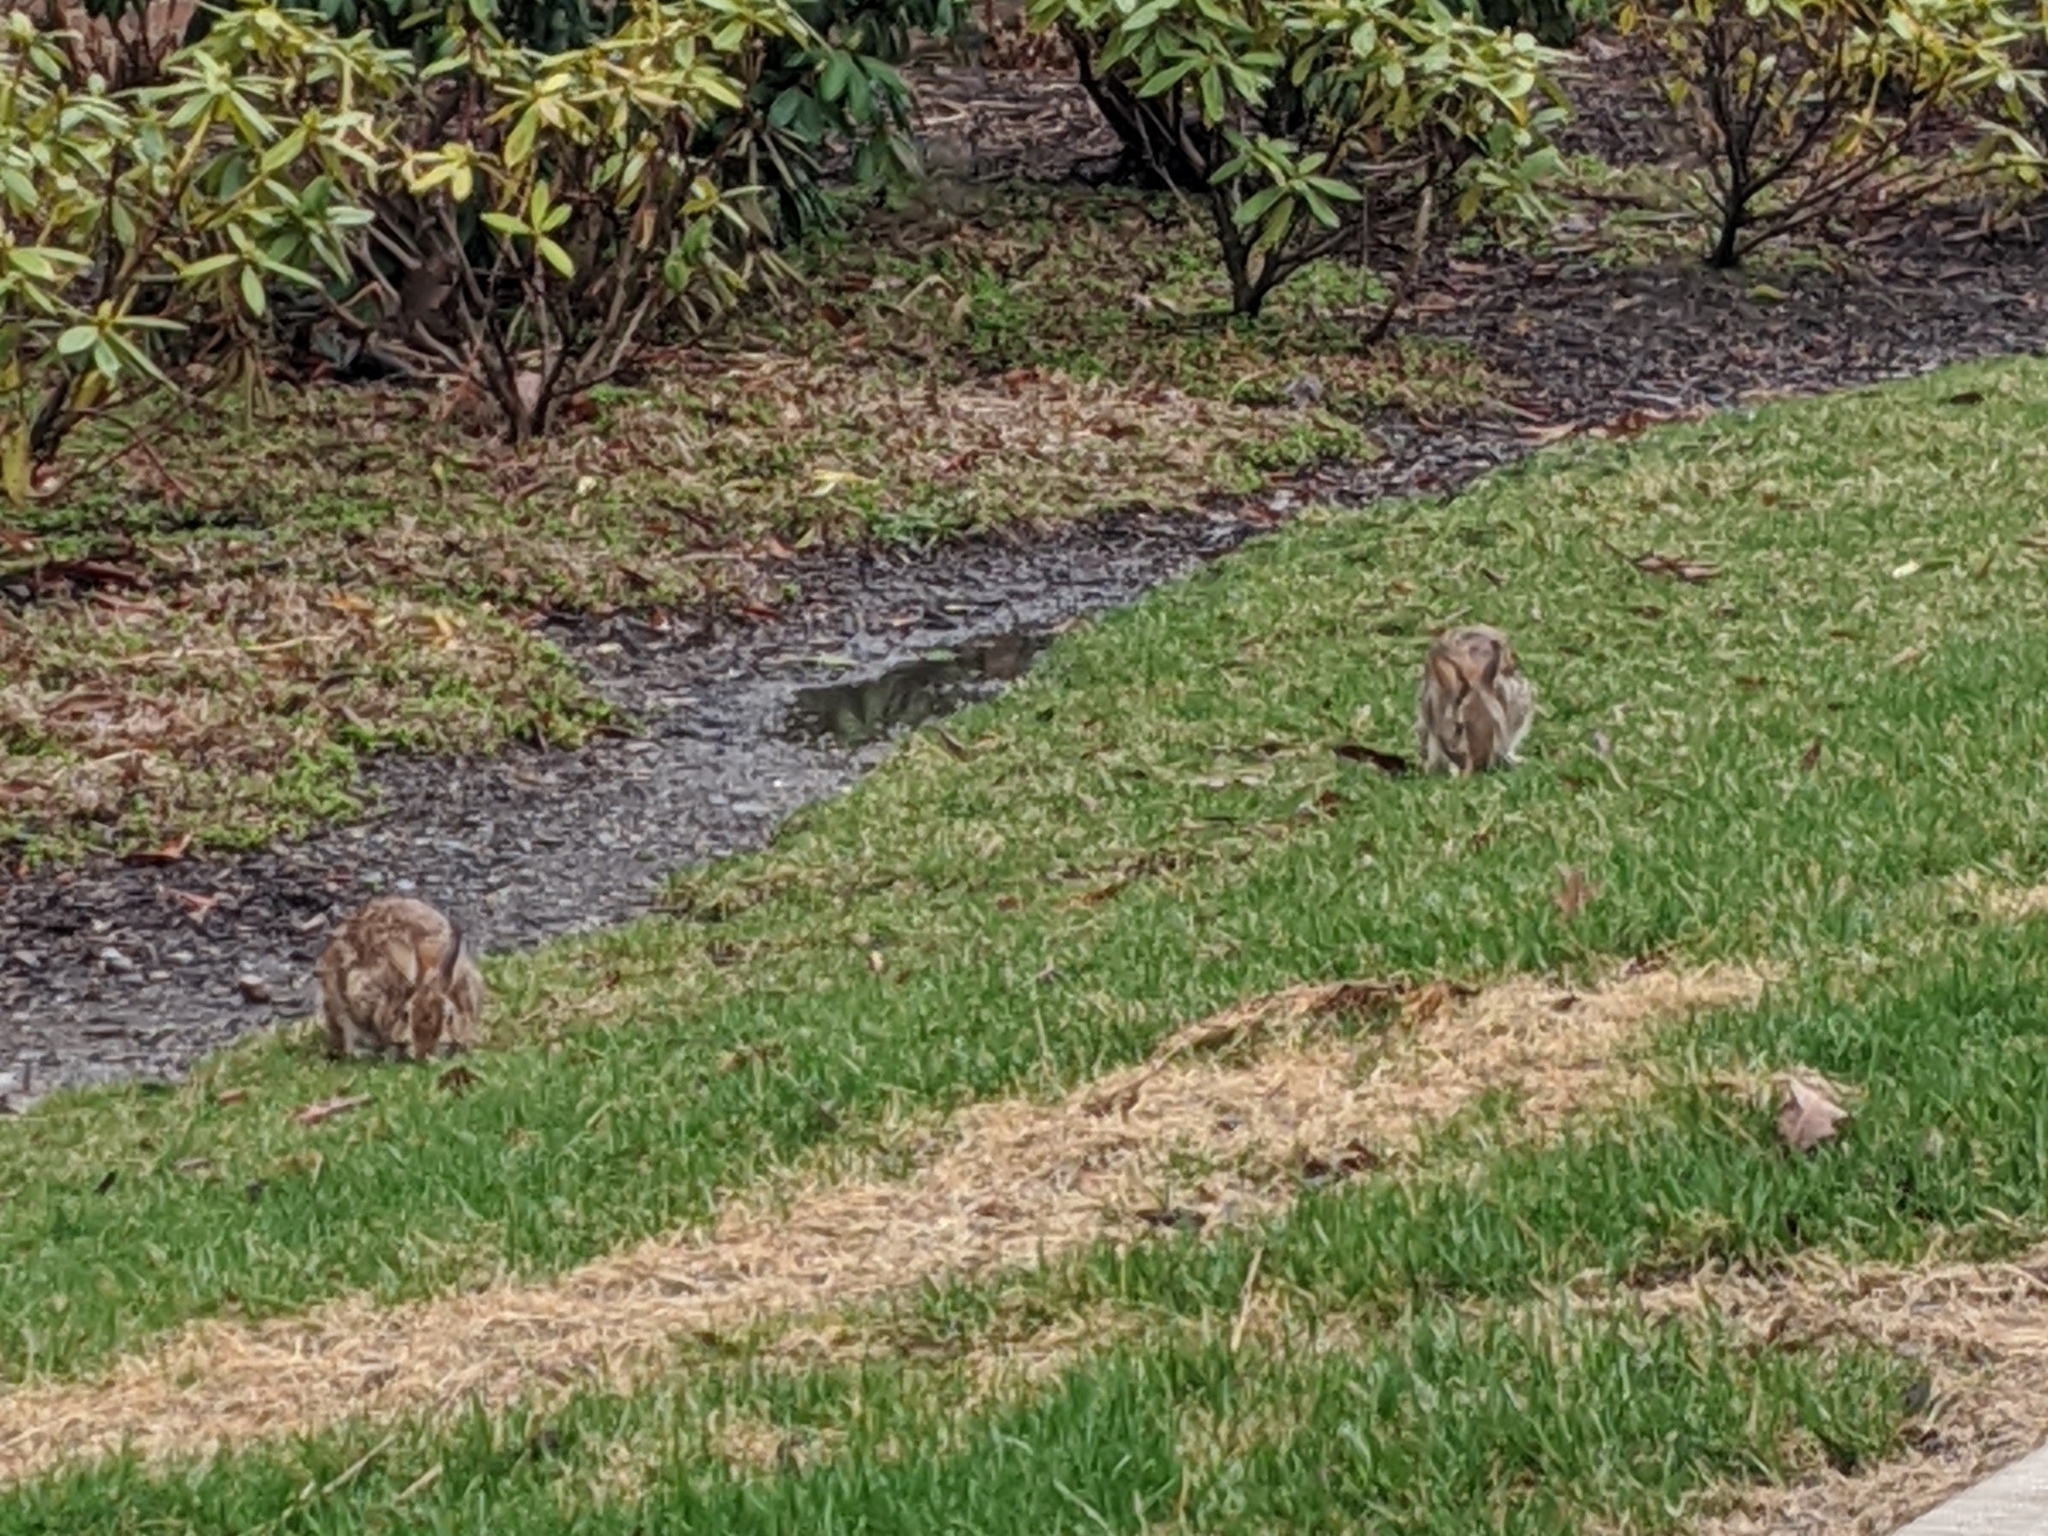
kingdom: Animalia
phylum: Chordata
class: Mammalia
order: Lagomorpha
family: Leporidae
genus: Sylvilagus
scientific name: Sylvilagus floridanus
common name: Eastern cottontail
